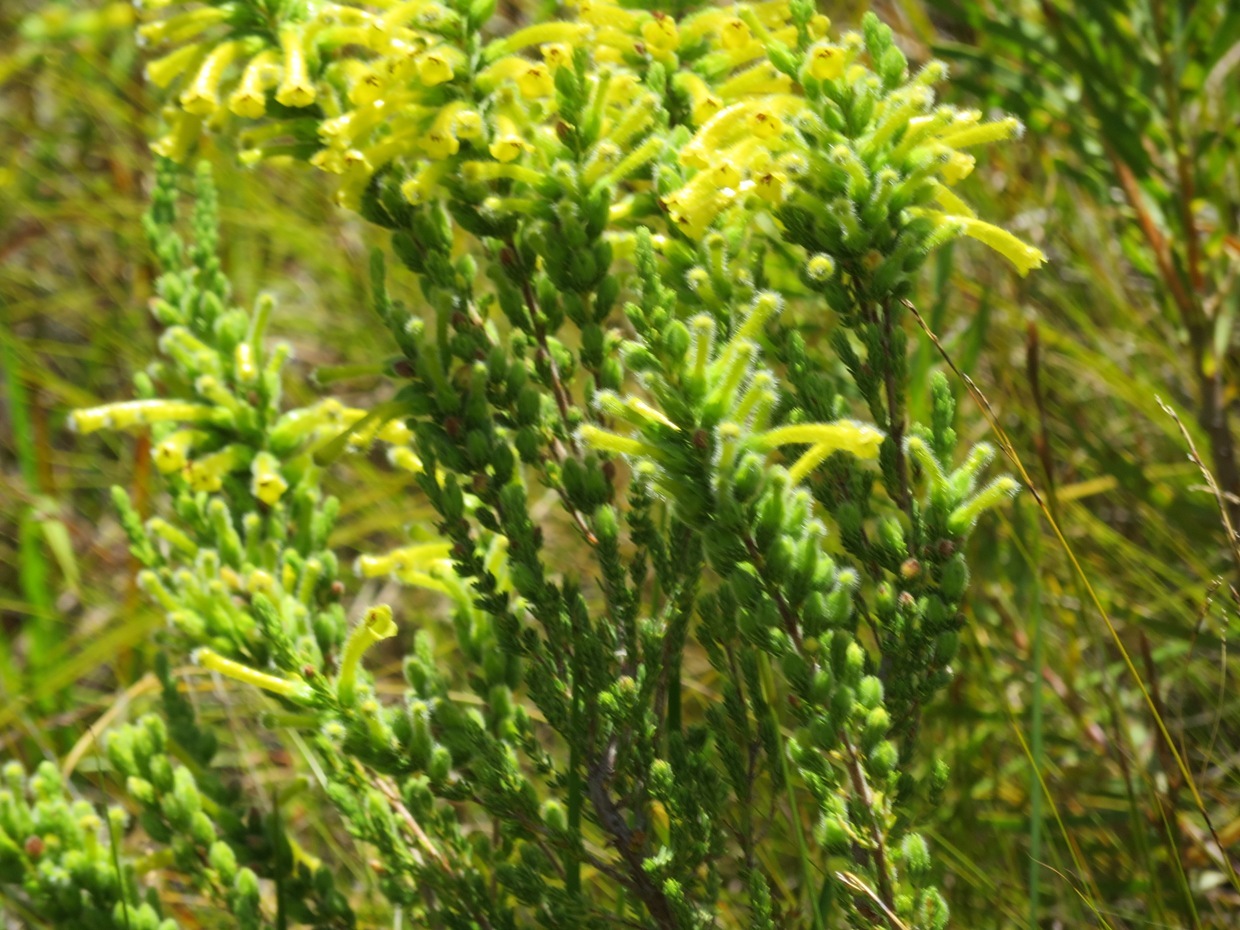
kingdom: Plantae
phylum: Tracheophyta
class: Magnoliopsida
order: Ericales
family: Ericaceae
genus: Erica
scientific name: Erica stagnalis
